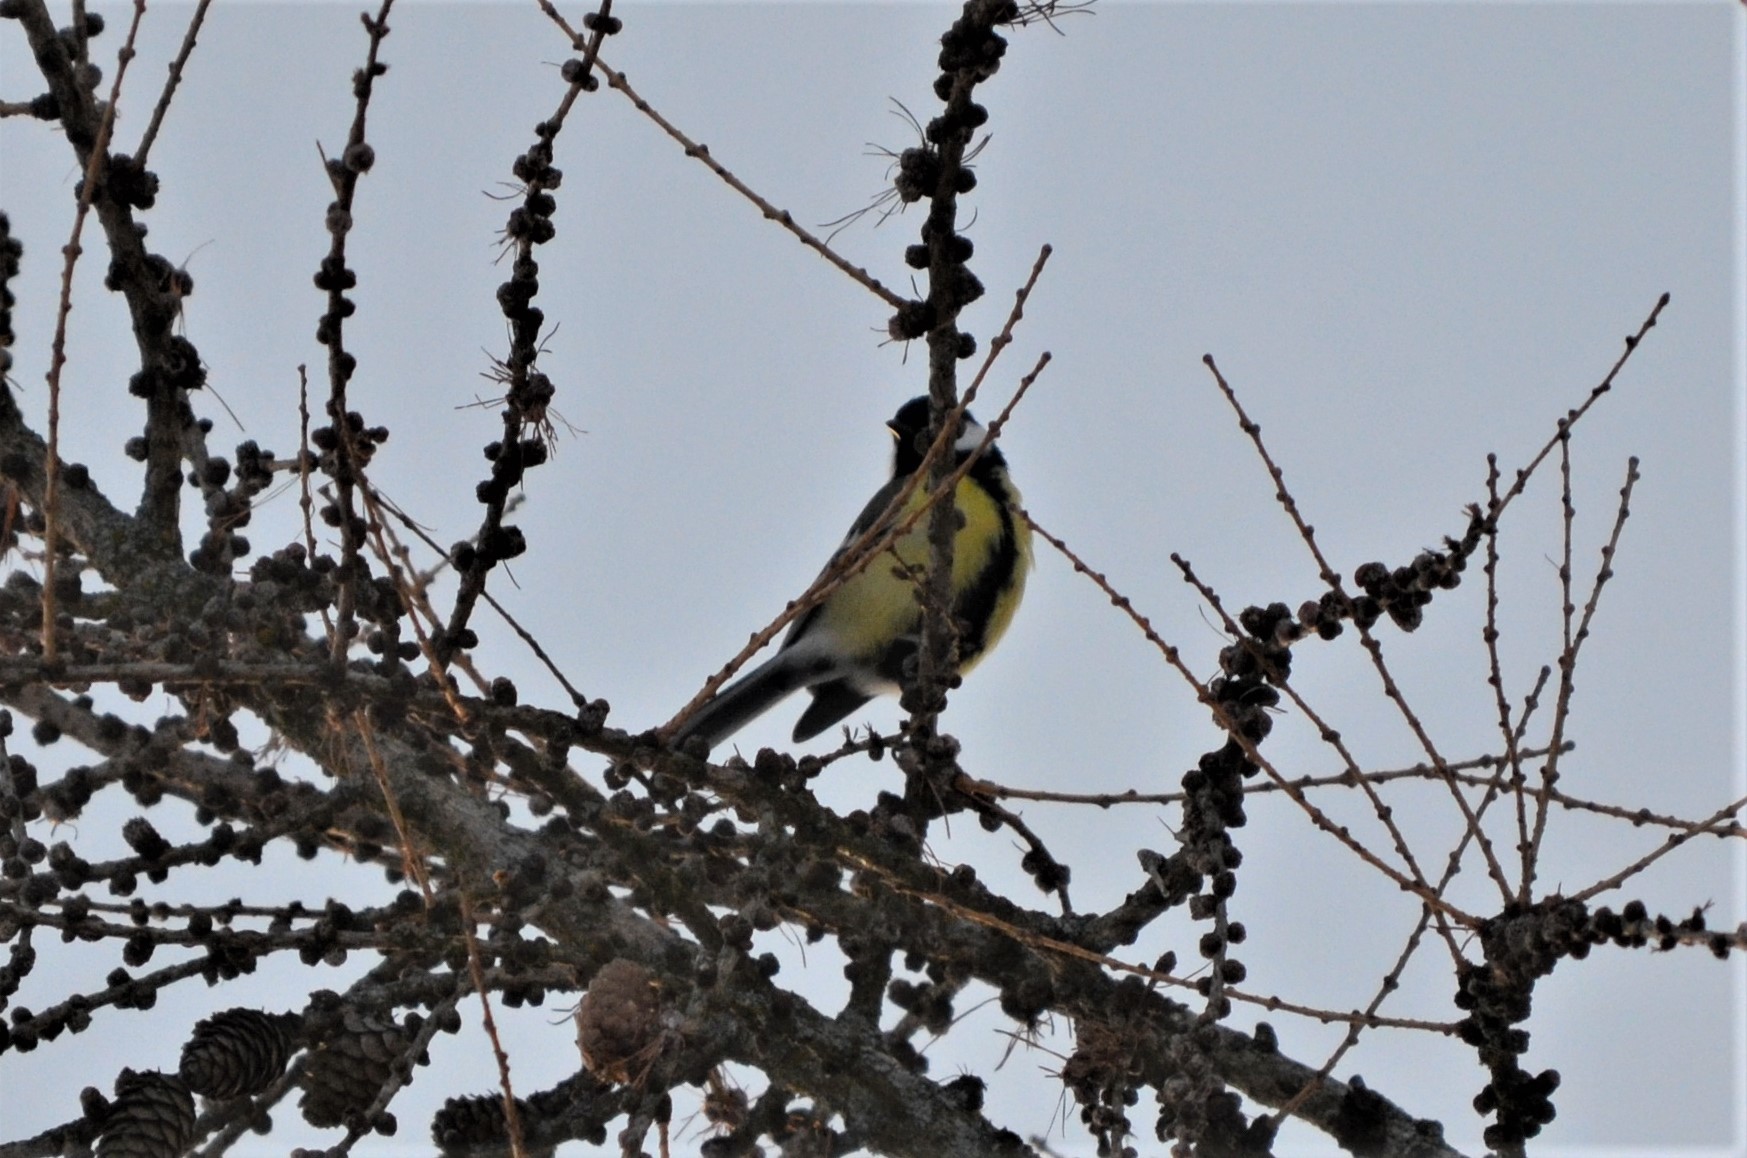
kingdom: Animalia
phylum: Chordata
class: Aves
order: Passeriformes
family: Paridae
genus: Parus
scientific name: Parus major
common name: Great tit
